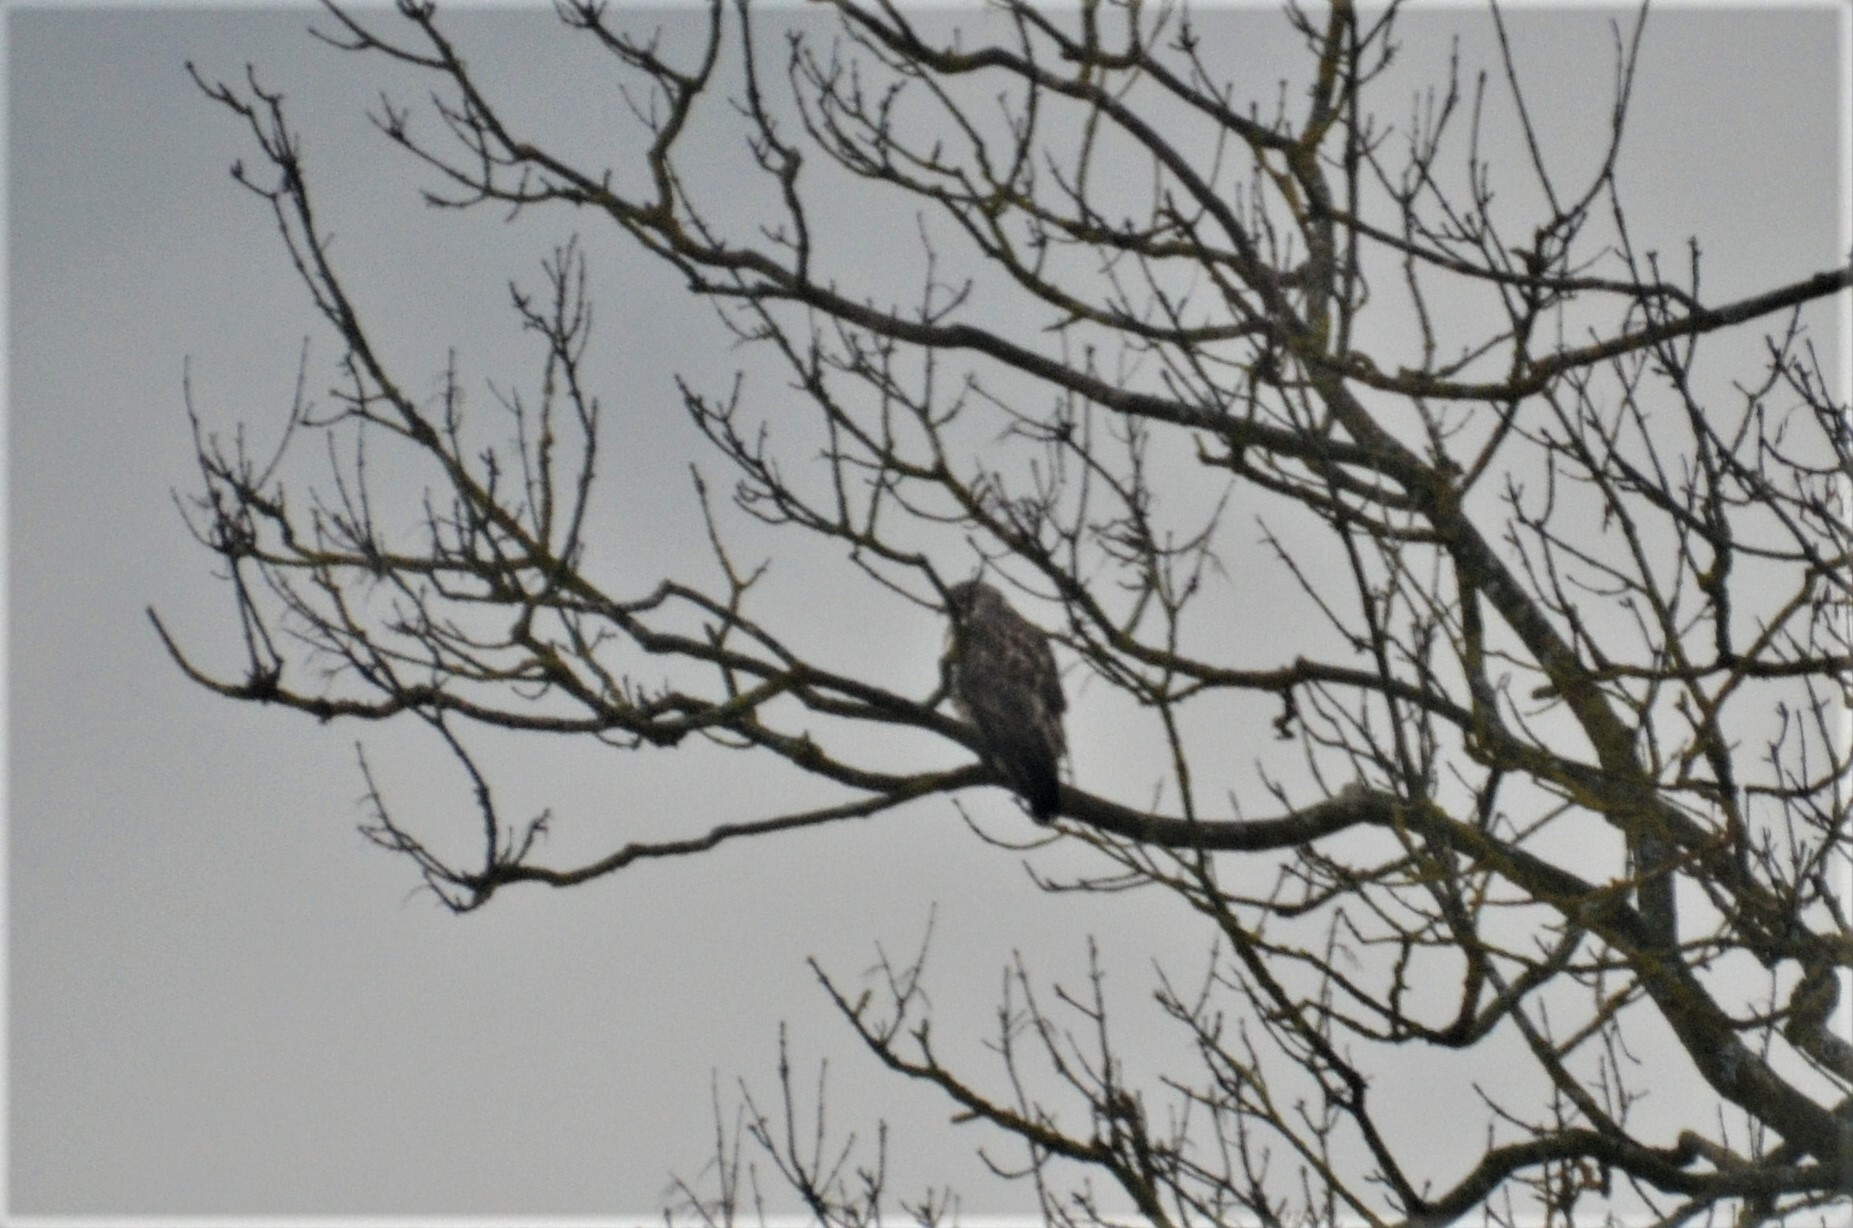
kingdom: Animalia
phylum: Chordata
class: Aves
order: Accipitriformes
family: Accipitridae
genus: Buteo
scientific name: Buteo buteo
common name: Common buzzard
